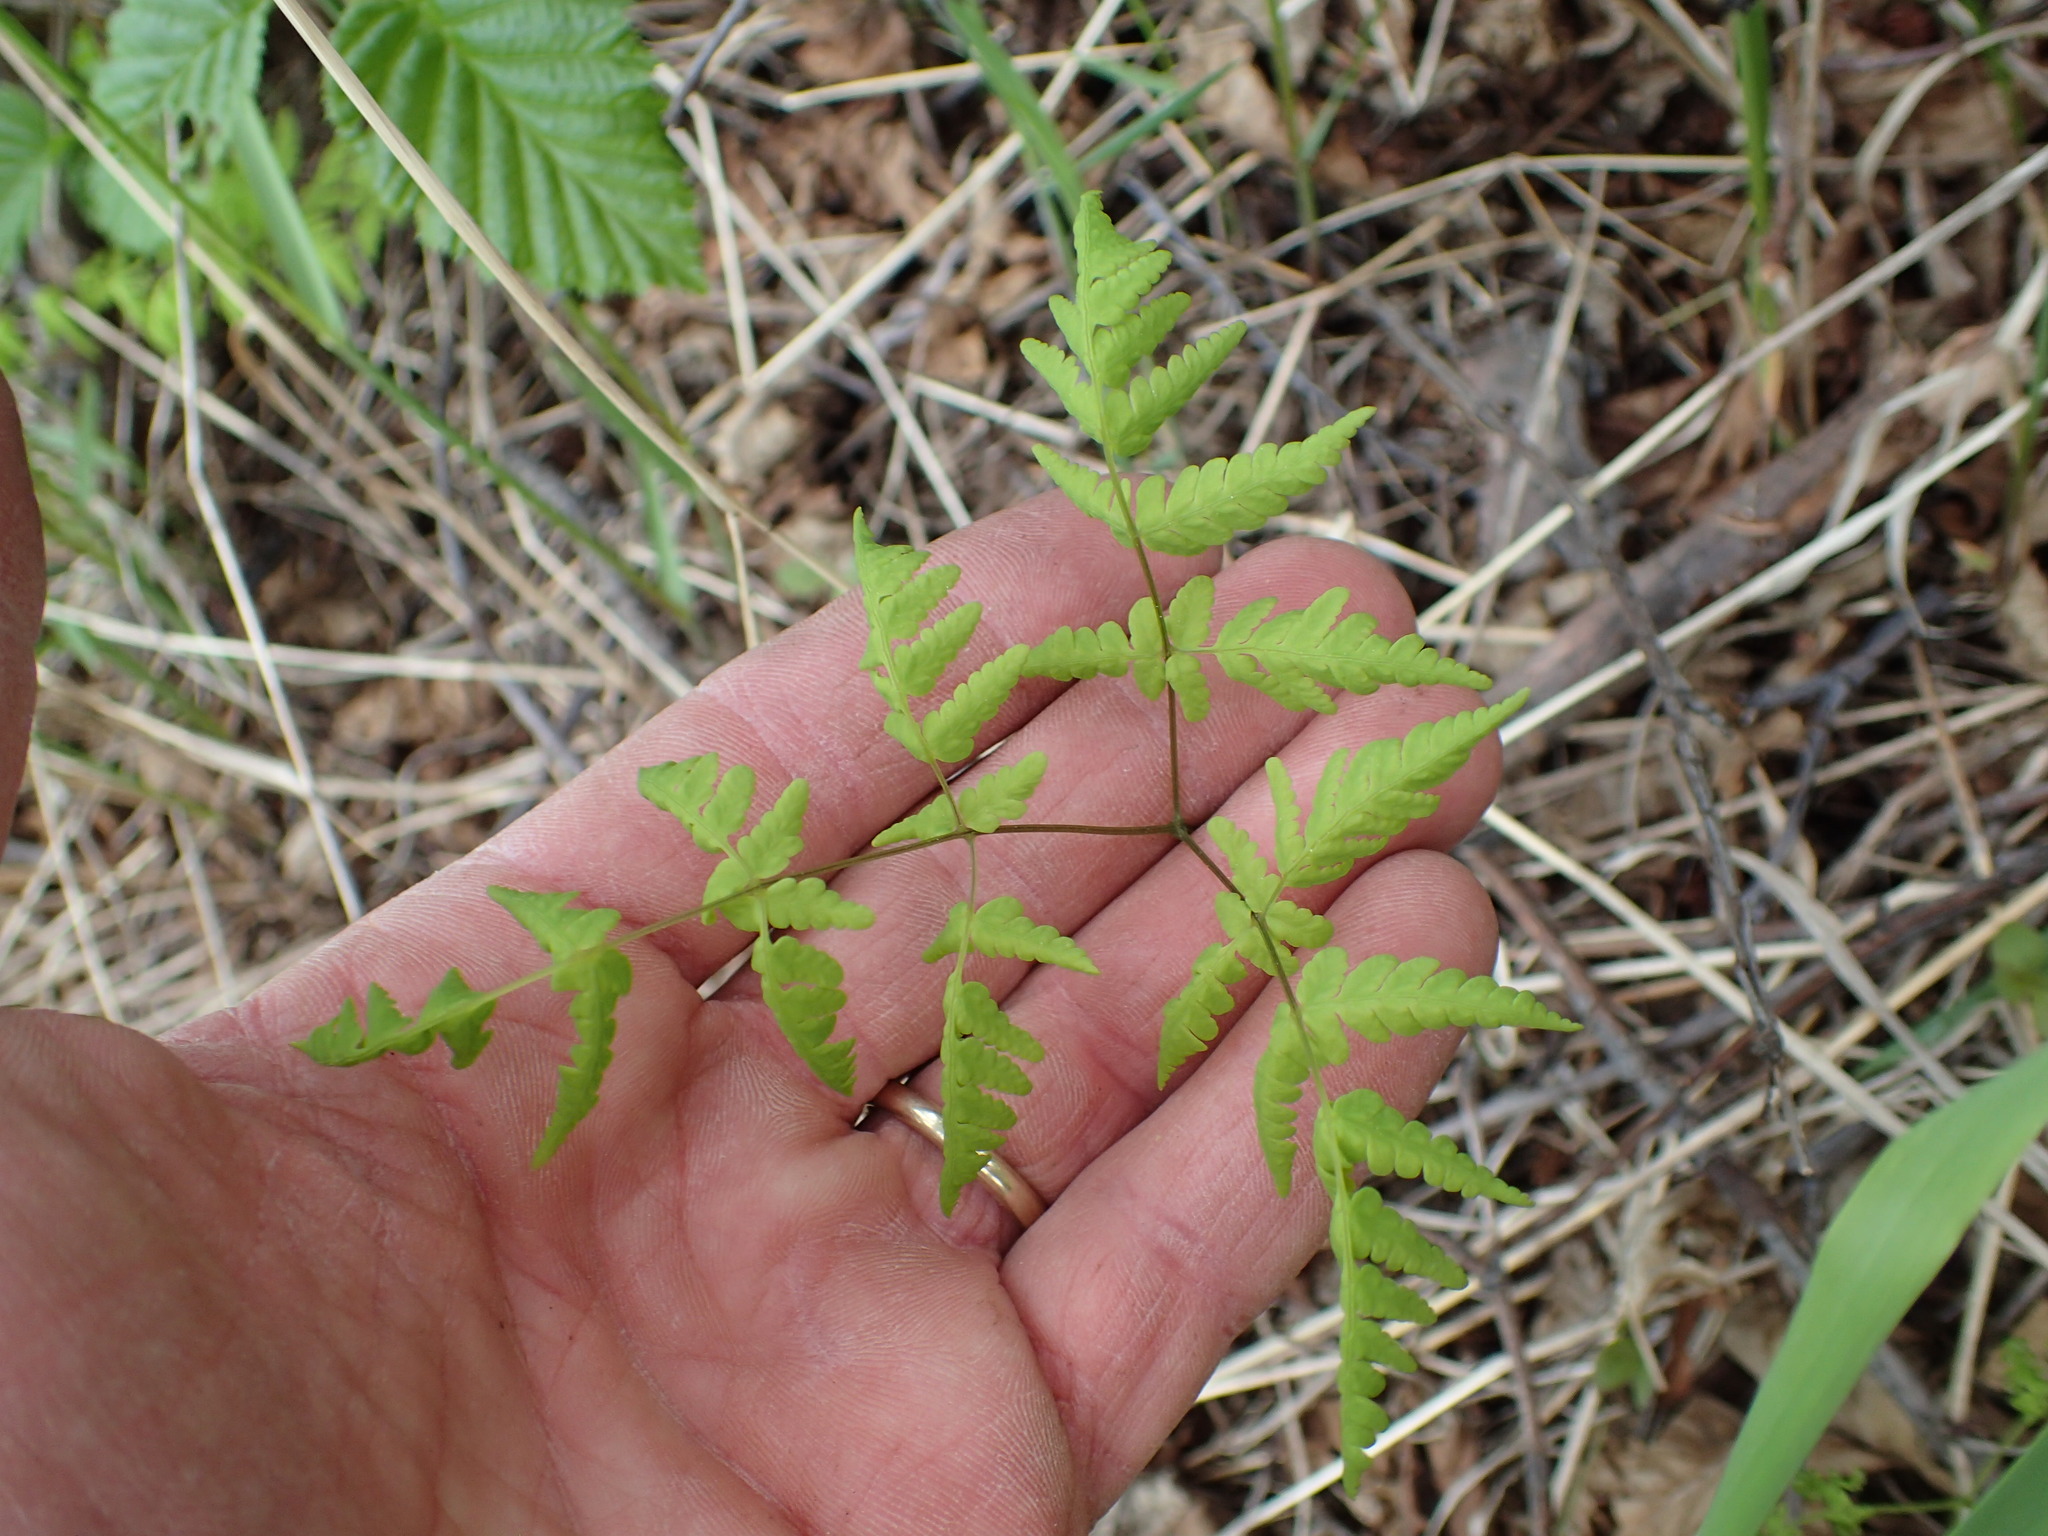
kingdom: Plantae
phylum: Tracheophyta
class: Polypodiopsida
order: Polypodiales
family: Cystopteridaceae
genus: Gymnocarpium
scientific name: Gymnocarpium dryopteris
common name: Oak fern
